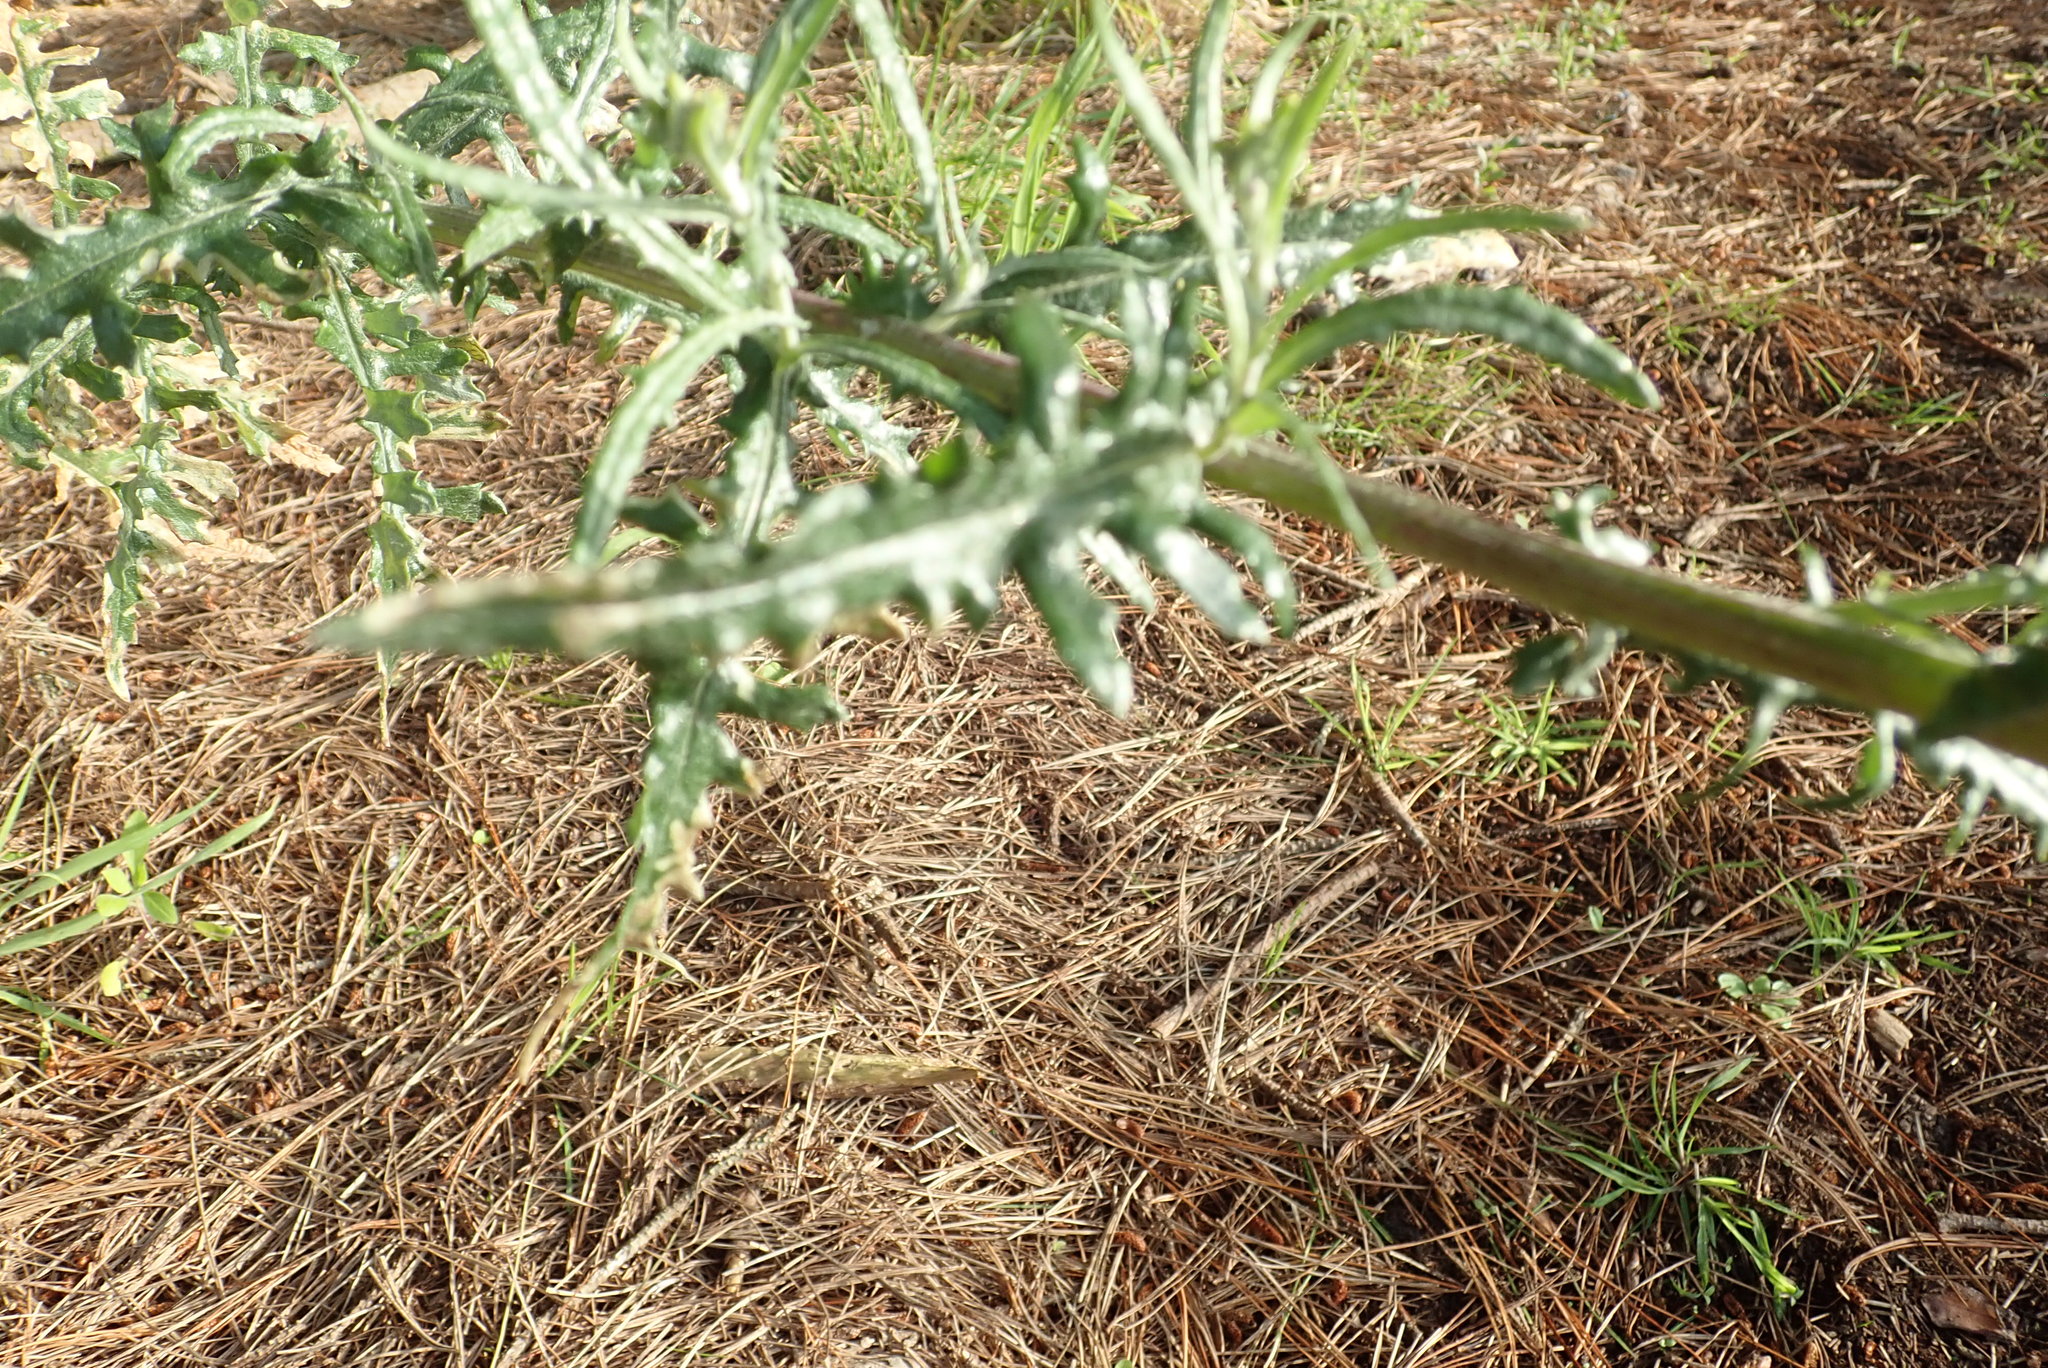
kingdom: Plantae
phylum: Tracheophyta
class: Magnoliopsida
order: Asterales
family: Asteraceae
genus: Senecio
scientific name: Senecio glomeratus
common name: Cutleaf burnweed
